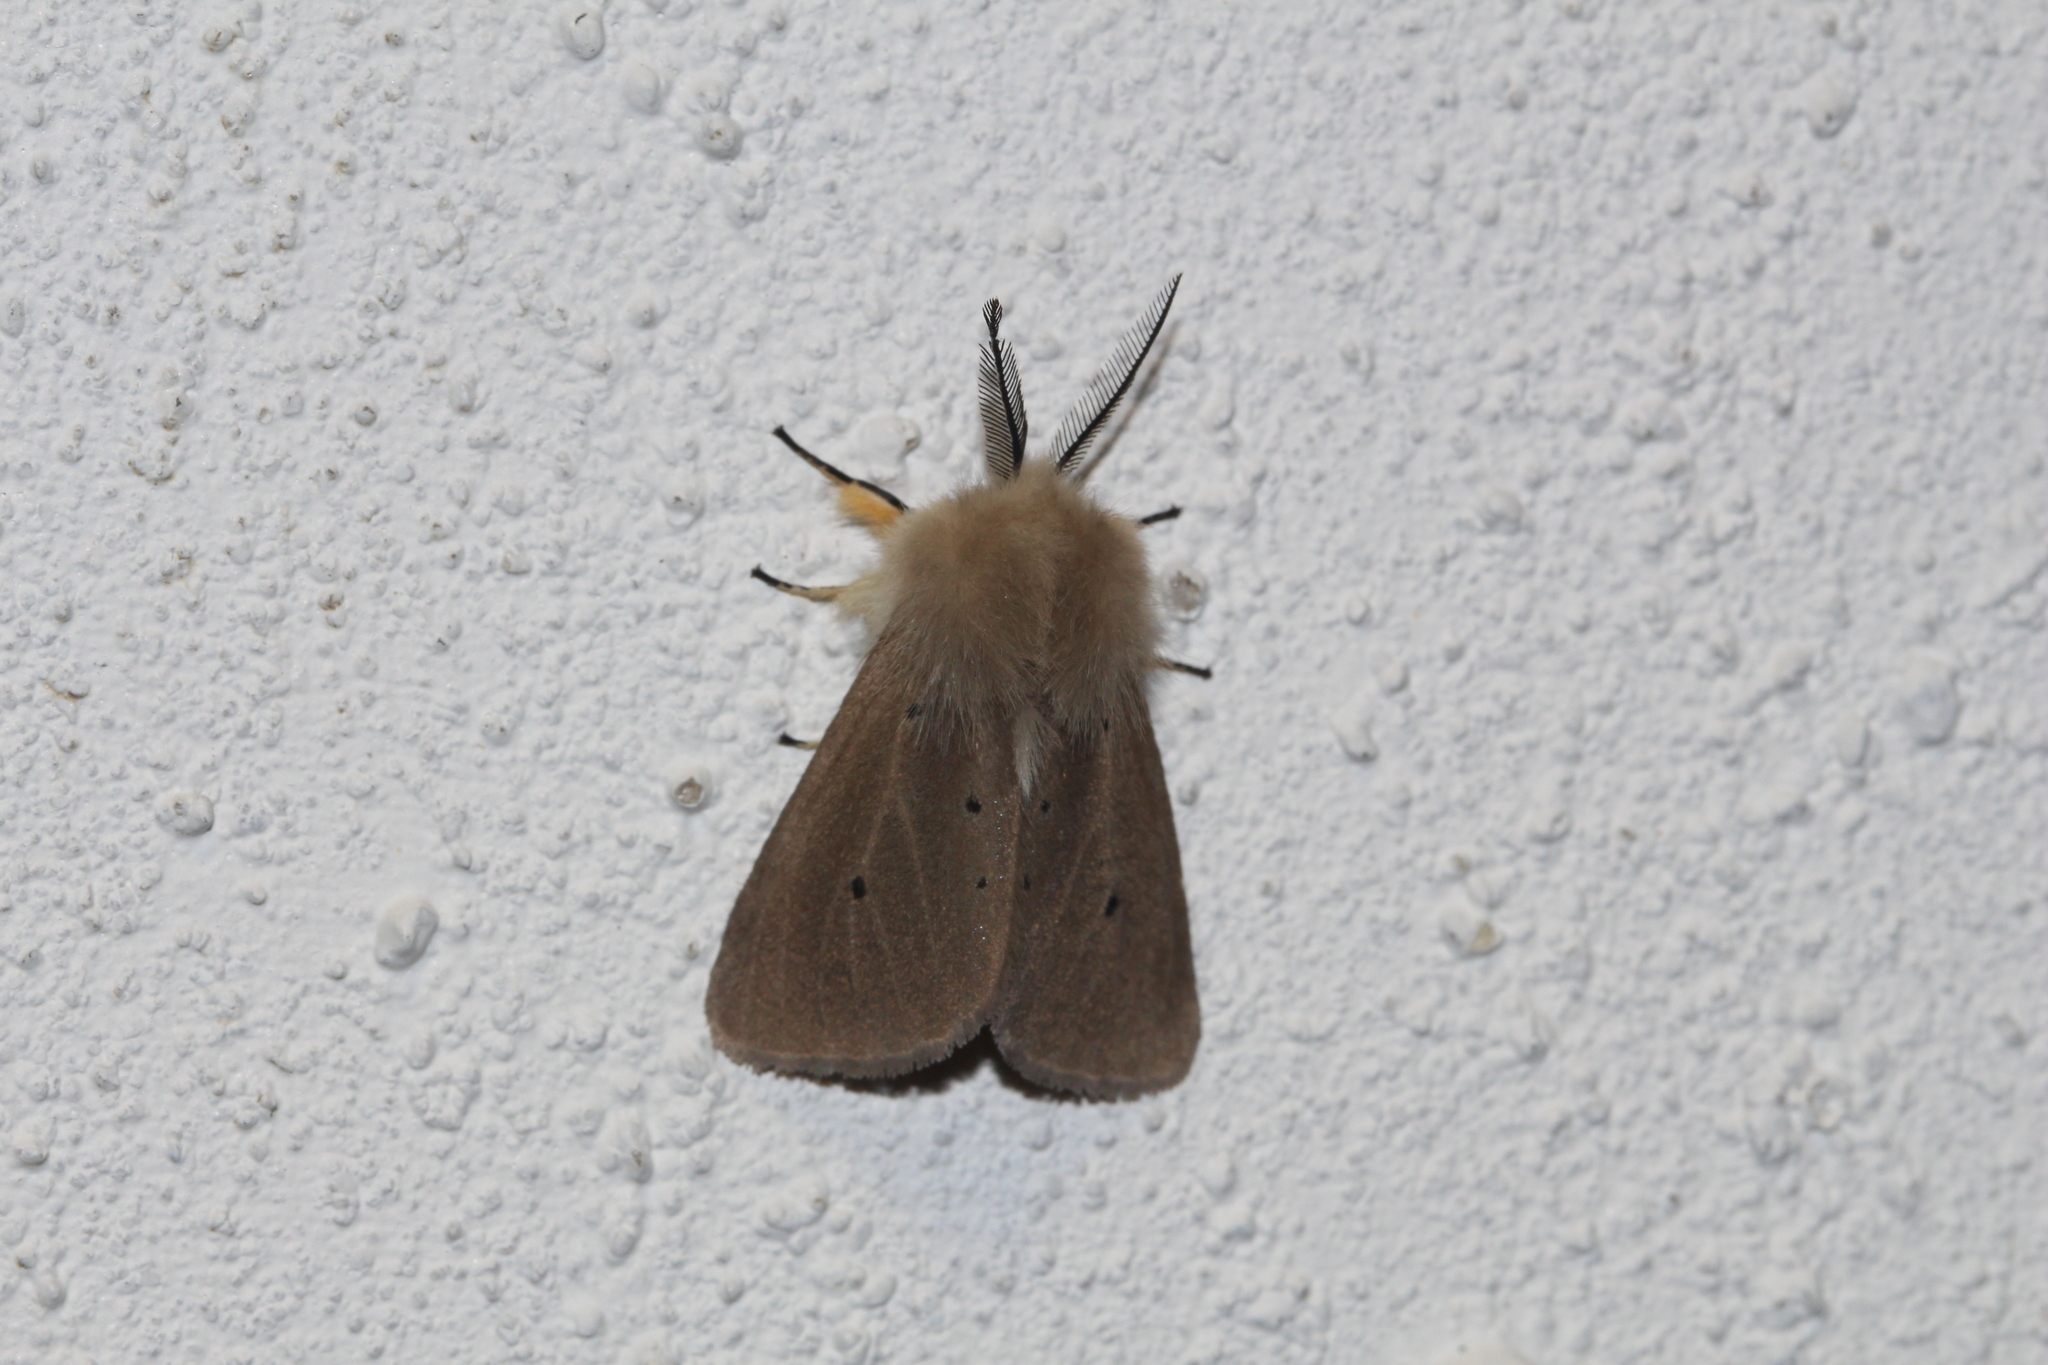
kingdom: Animalia
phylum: Arthropoda
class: Insecta
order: Lepidoptera
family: Erebidae
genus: Diaphora
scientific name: Diaphora mendica
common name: Muslin moth
